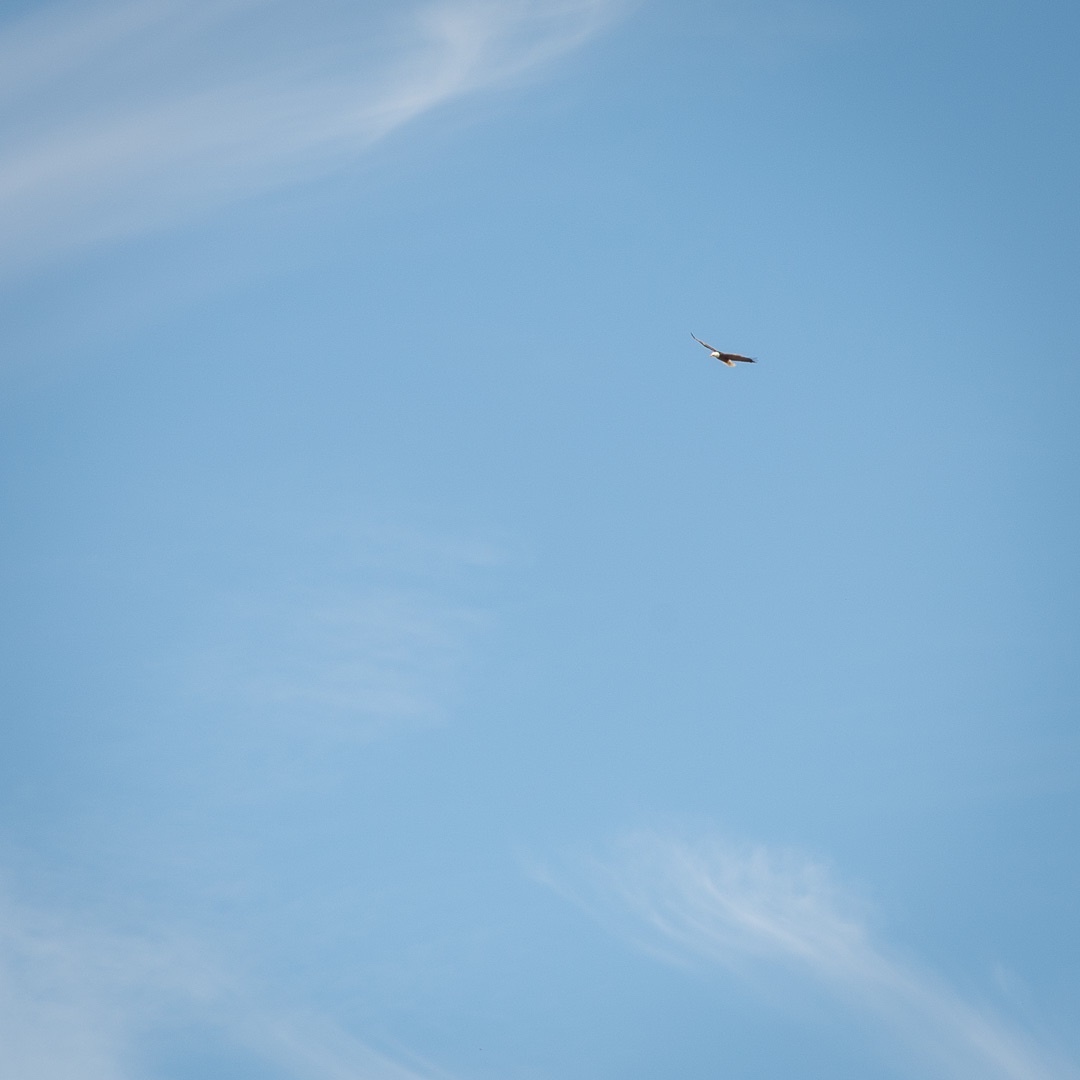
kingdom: Animalia
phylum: Chordata
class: Aves
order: Accipitriformes
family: Accipitridae
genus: Haliaeetus
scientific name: Haliaeetus leucocephalus
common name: Bald eagle
